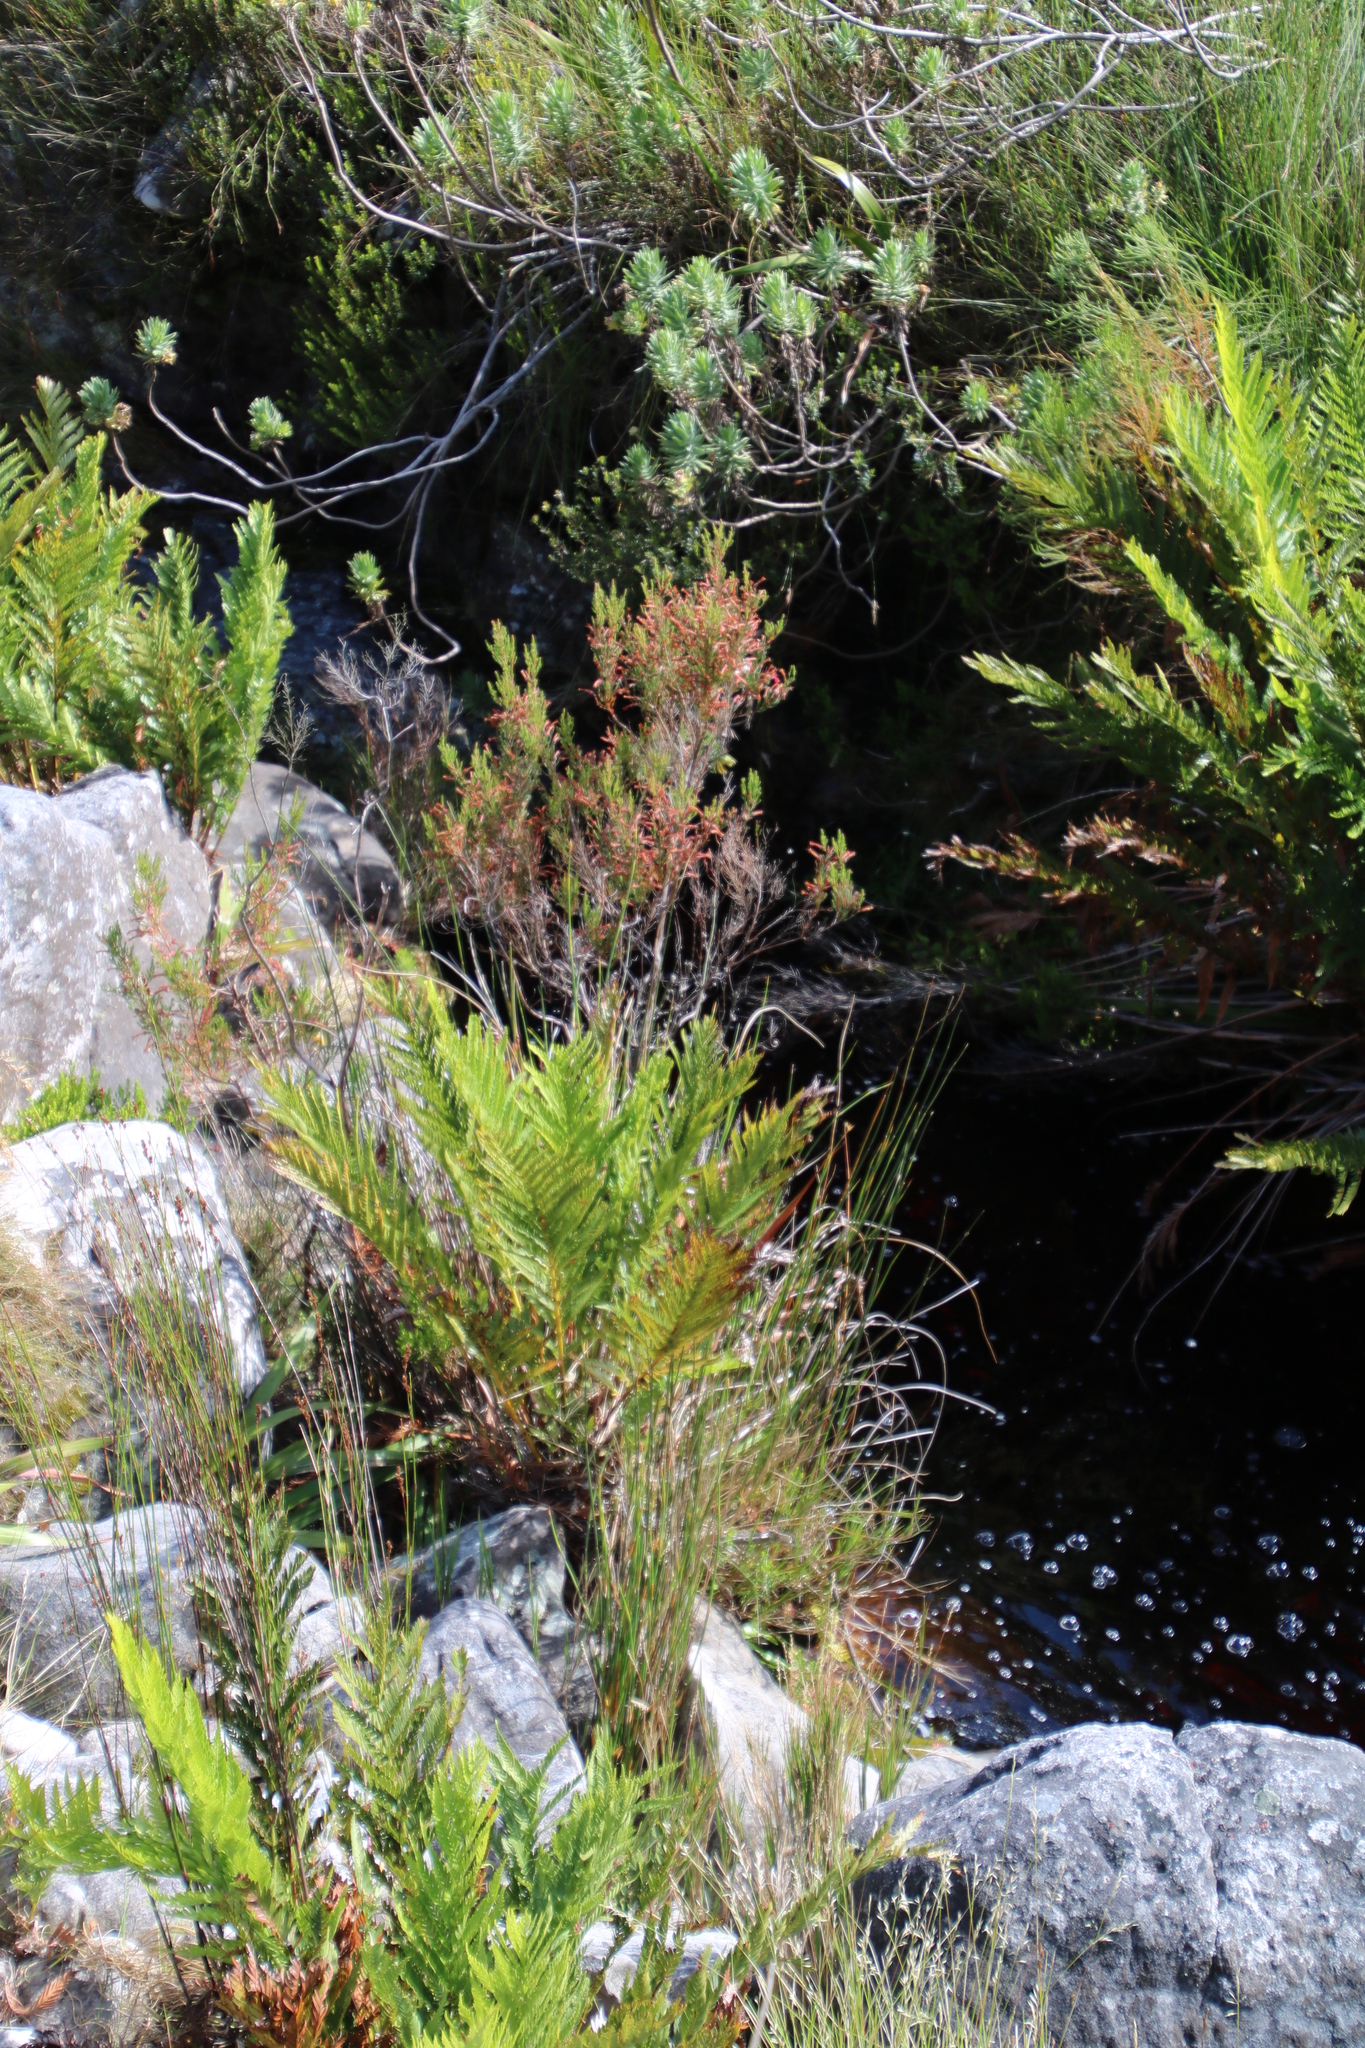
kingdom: Plantae
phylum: Tracheophyta
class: Magnoliopsida
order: Ericales
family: Ericaceae
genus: Erica
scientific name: Erica curviflora
